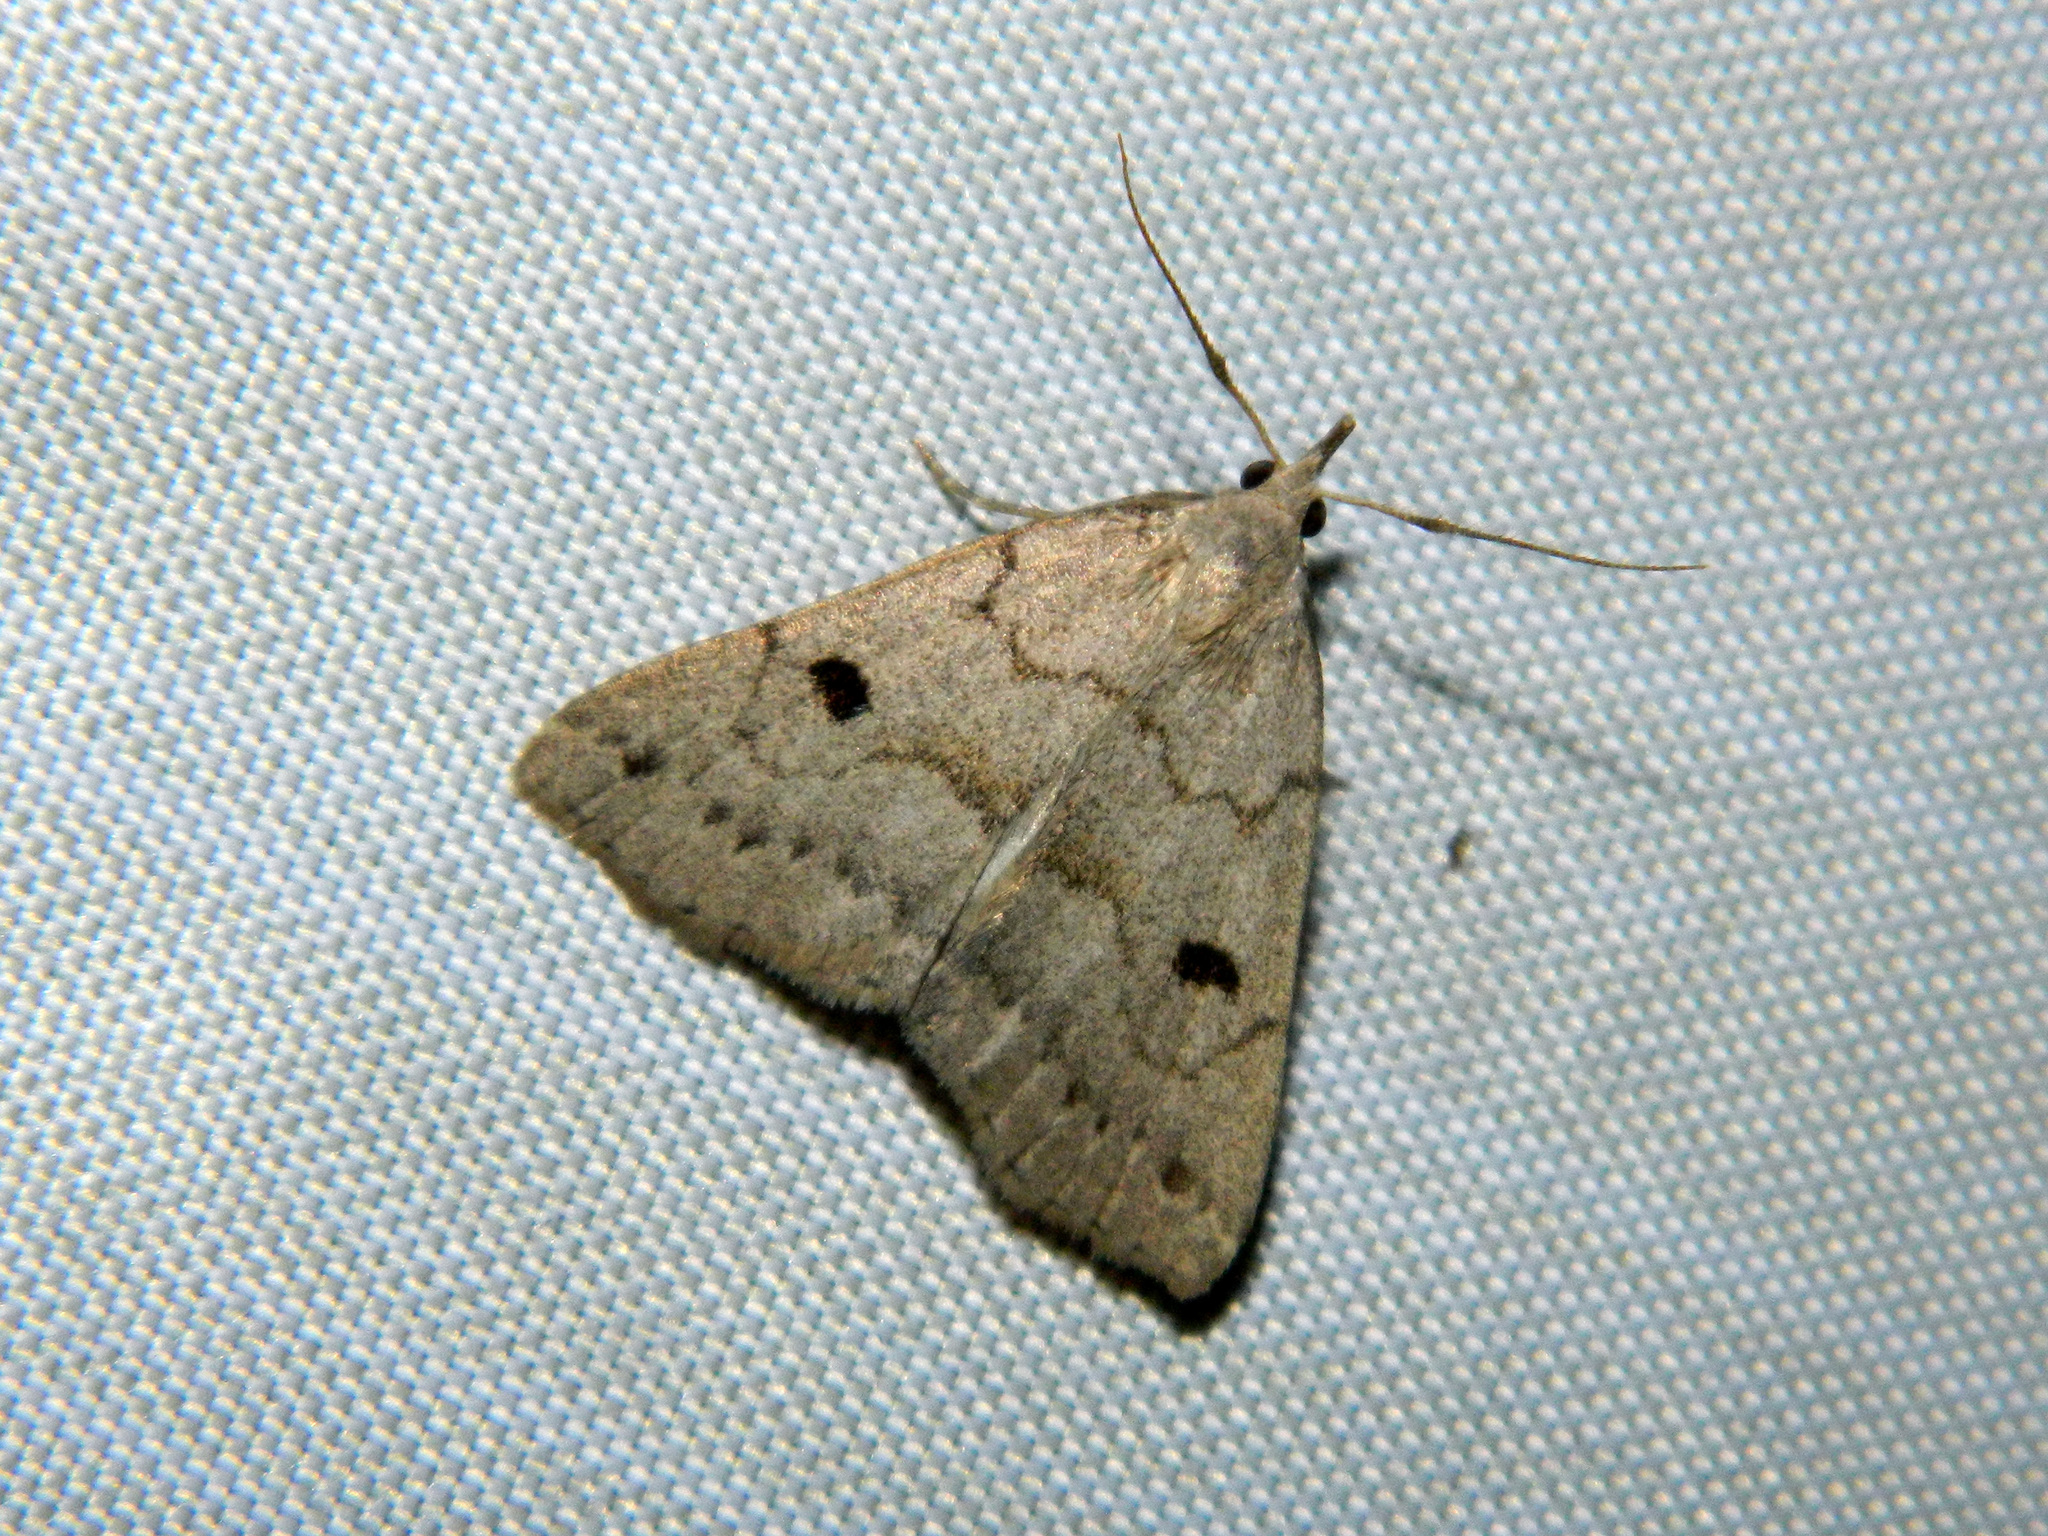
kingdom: Animalia
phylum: Arthropoda
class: Insecta
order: Lepidoptera
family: Erebidae
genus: Macrochilo
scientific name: Macrochilo morbidalis
